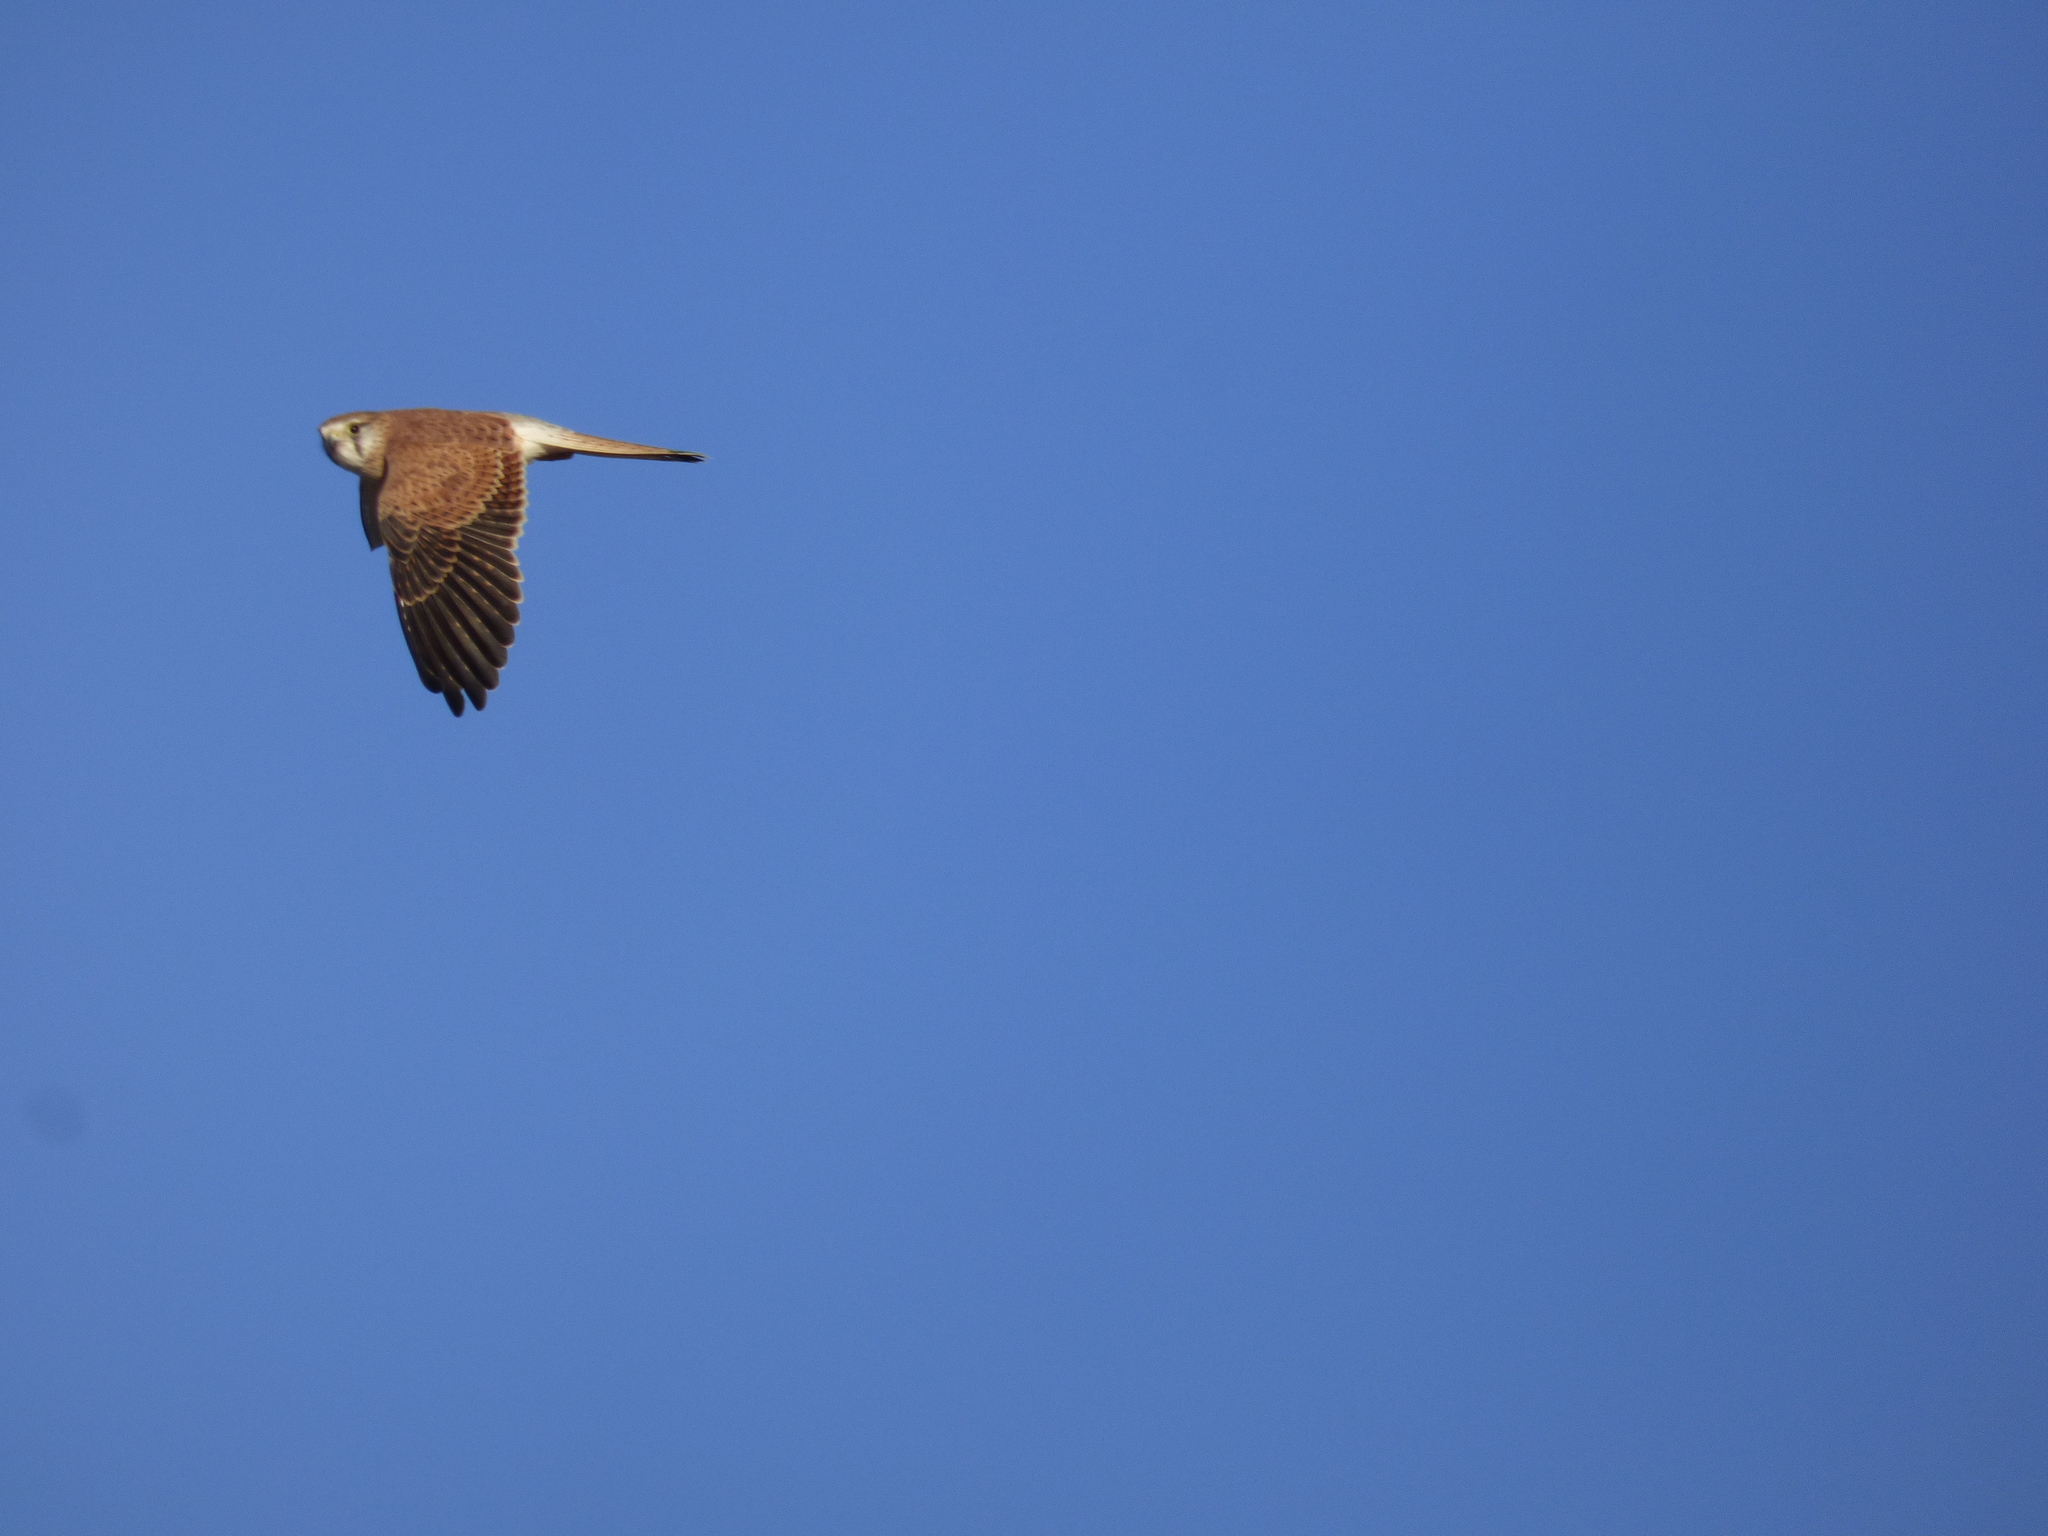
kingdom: Animalia
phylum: Chordata
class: Aves
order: Falconiformes
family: Falconidae
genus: Falco
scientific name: Falco cenchroides
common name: Nankeen kestrel
